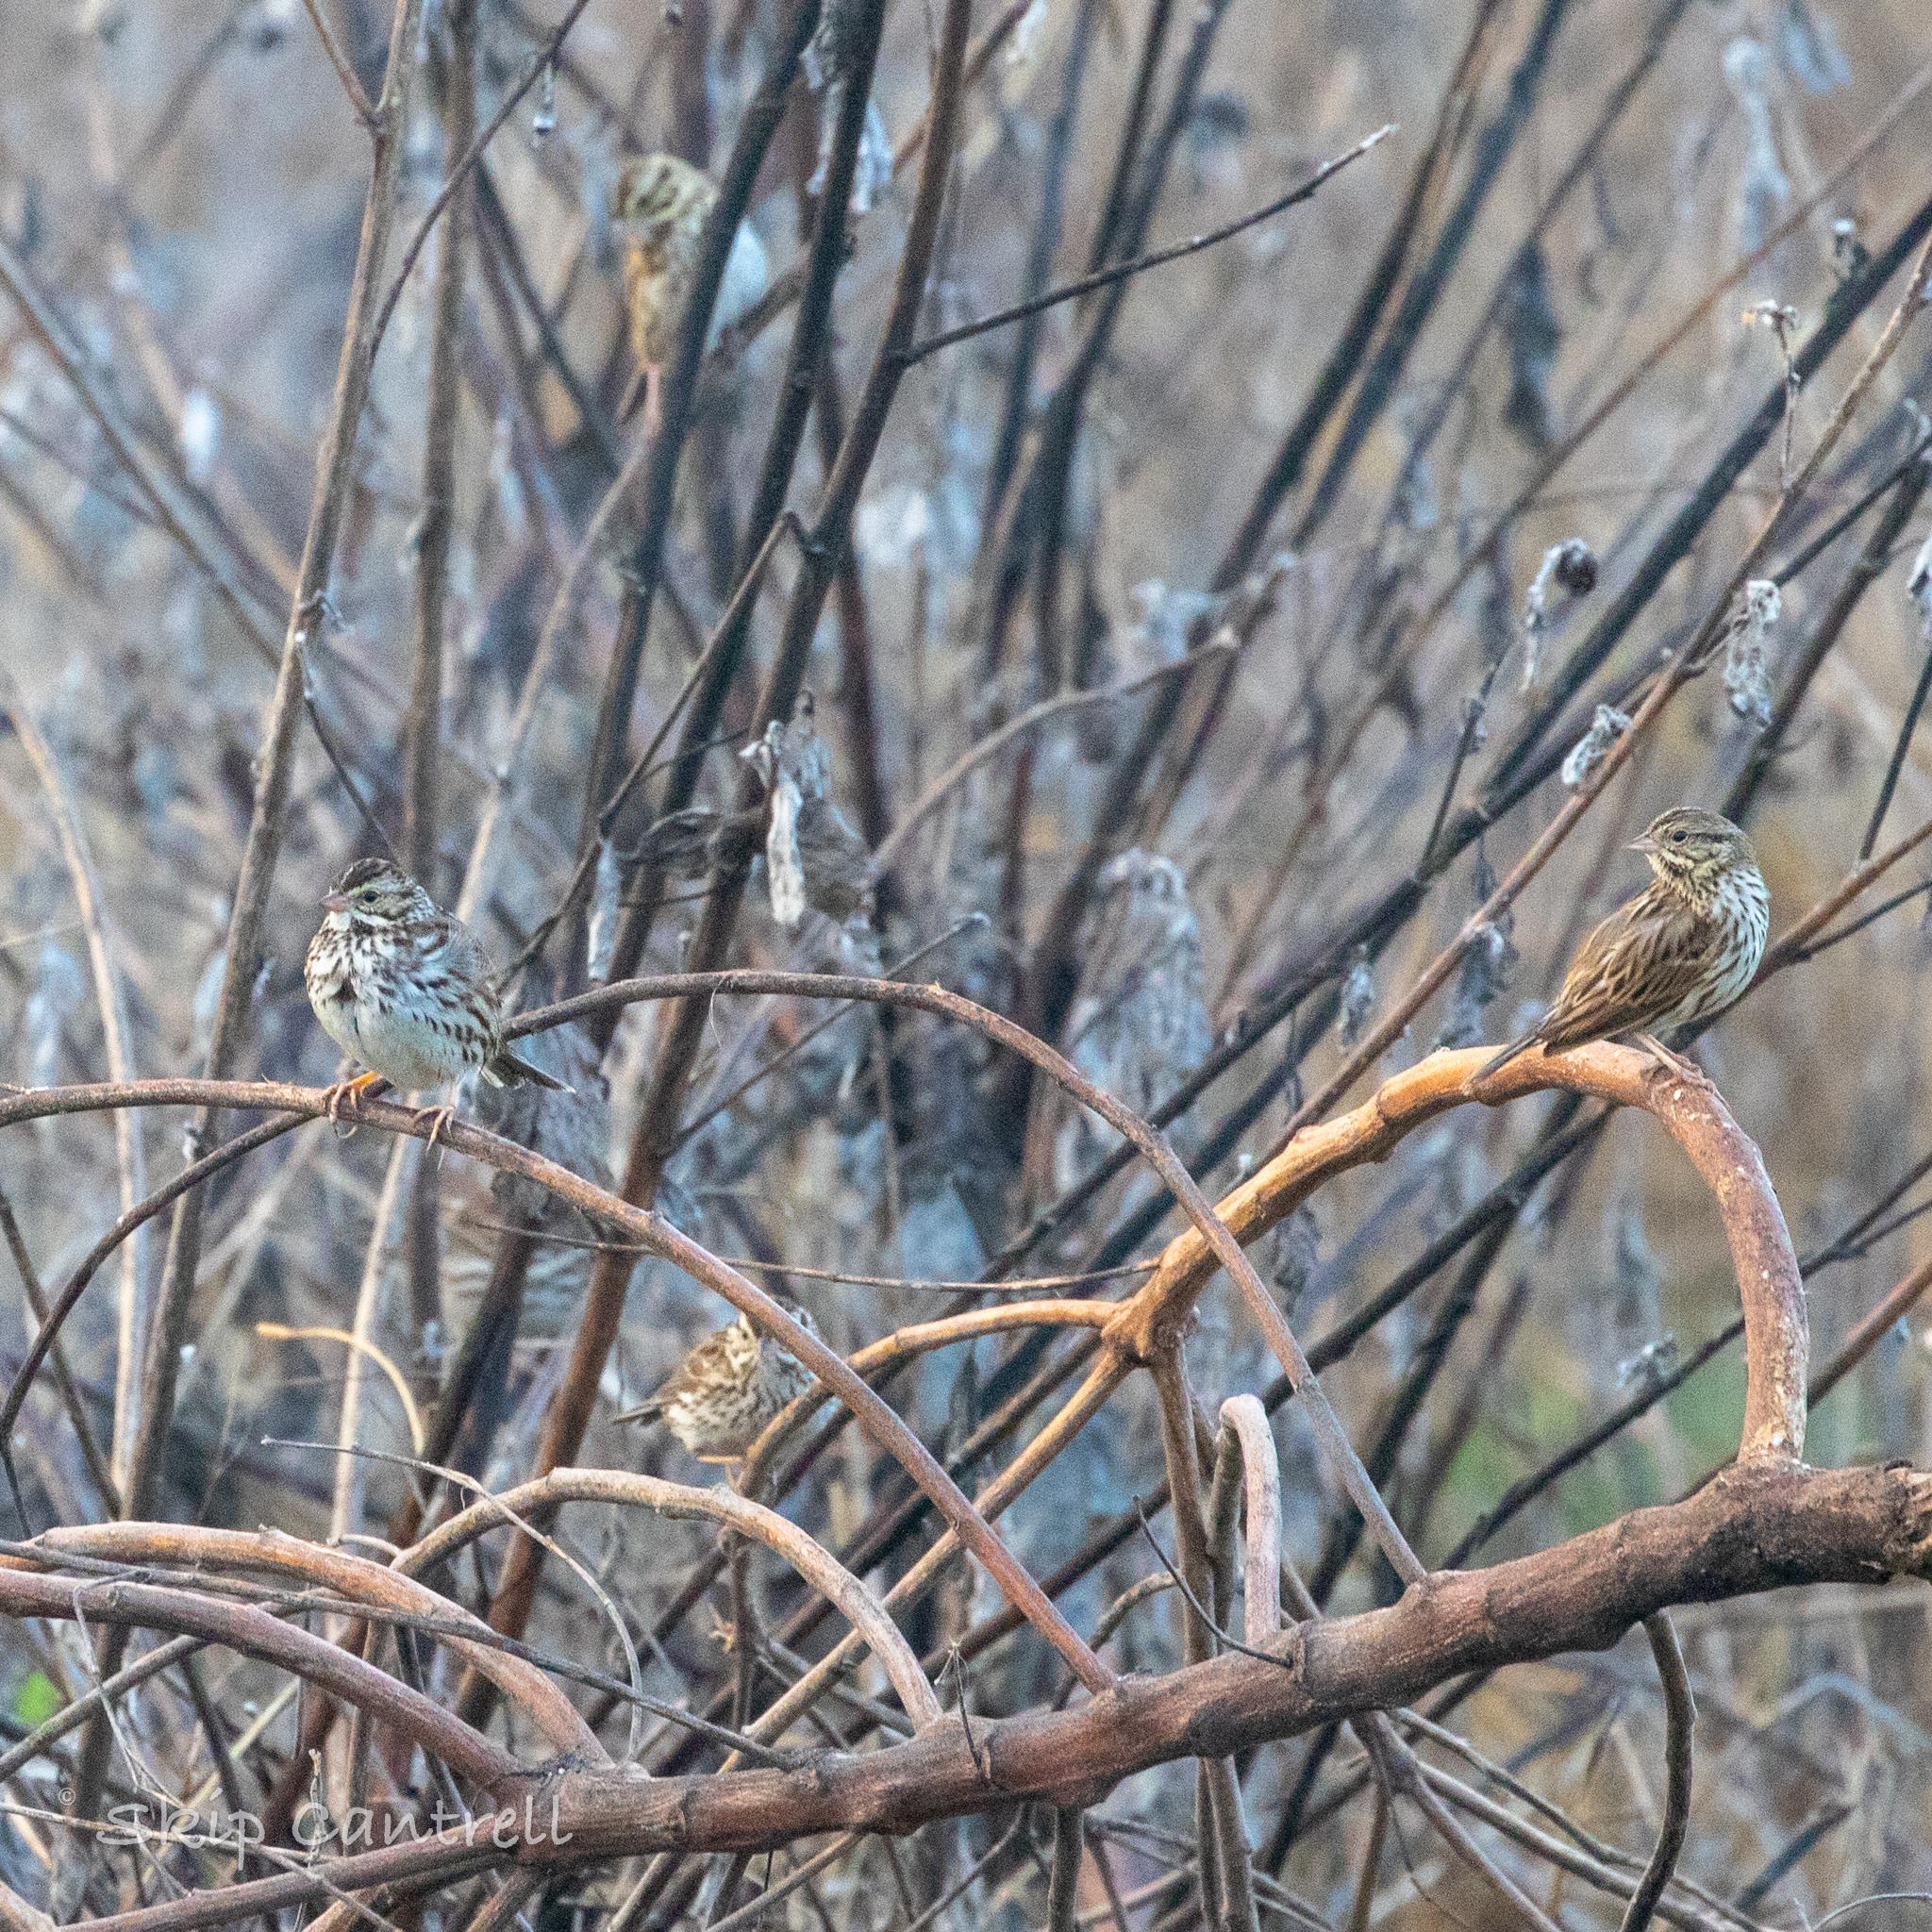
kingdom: Animalia
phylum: Chordata
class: Aves
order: Passeriformes
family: Passerellidae
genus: Passerculus
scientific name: Passerculus sandwichensis
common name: Savannah sparrow
